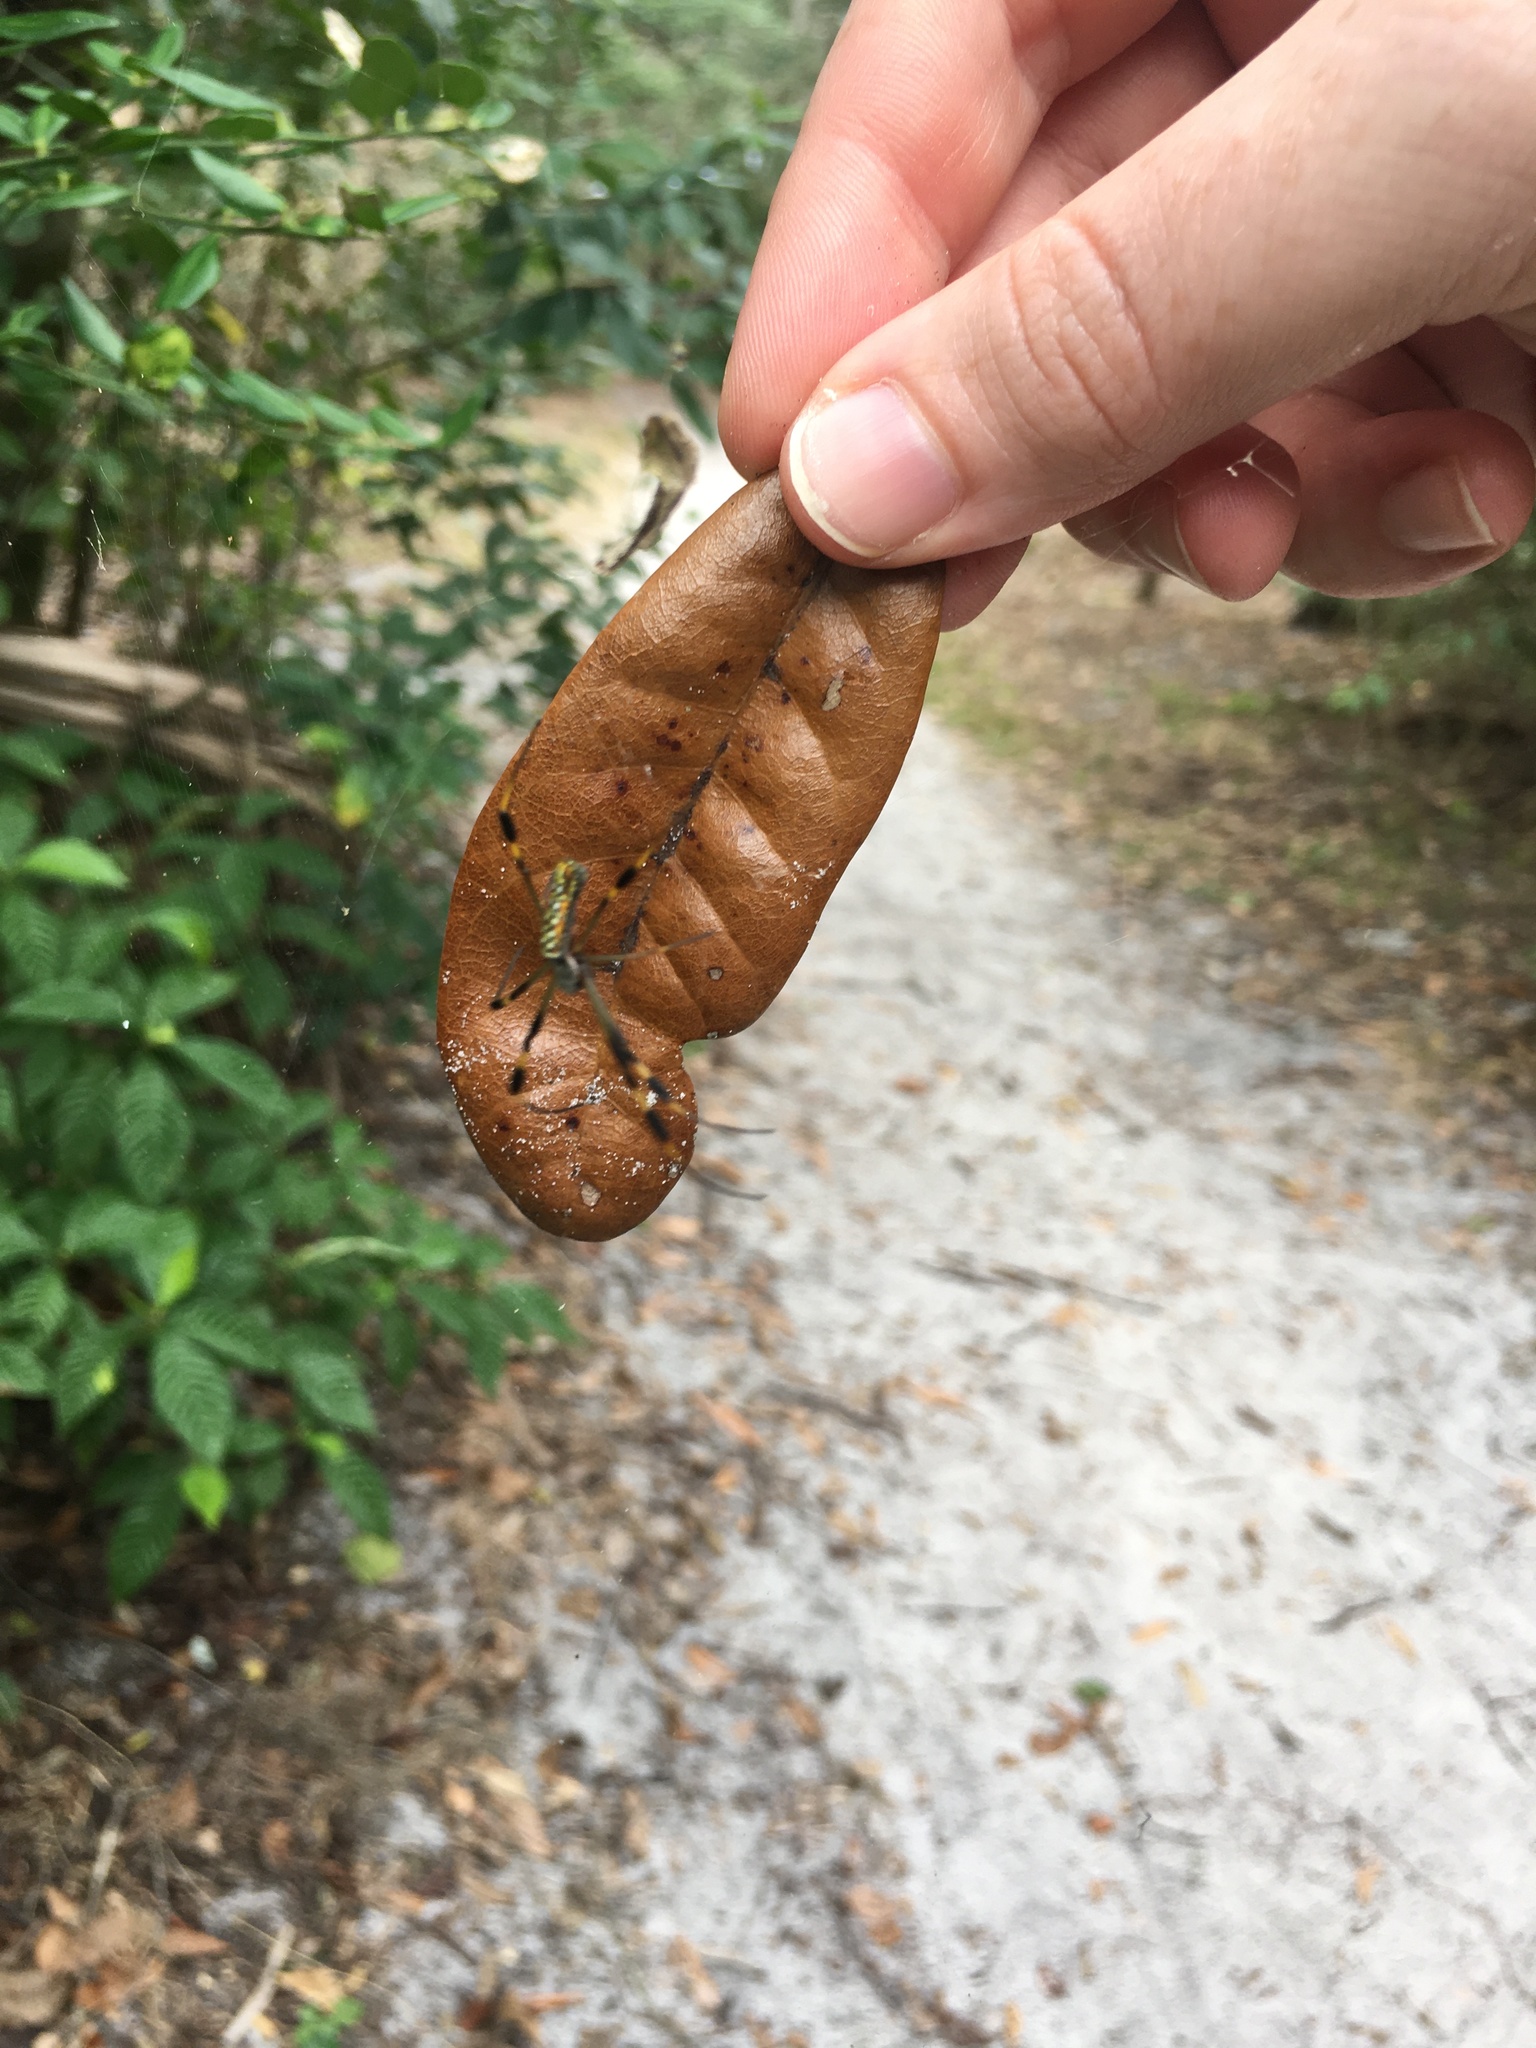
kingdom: Animalia
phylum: Arthropoda
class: Arachnida
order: Araneae
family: Araneidae
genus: Trichonephila
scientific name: Trichonephila clavipes
